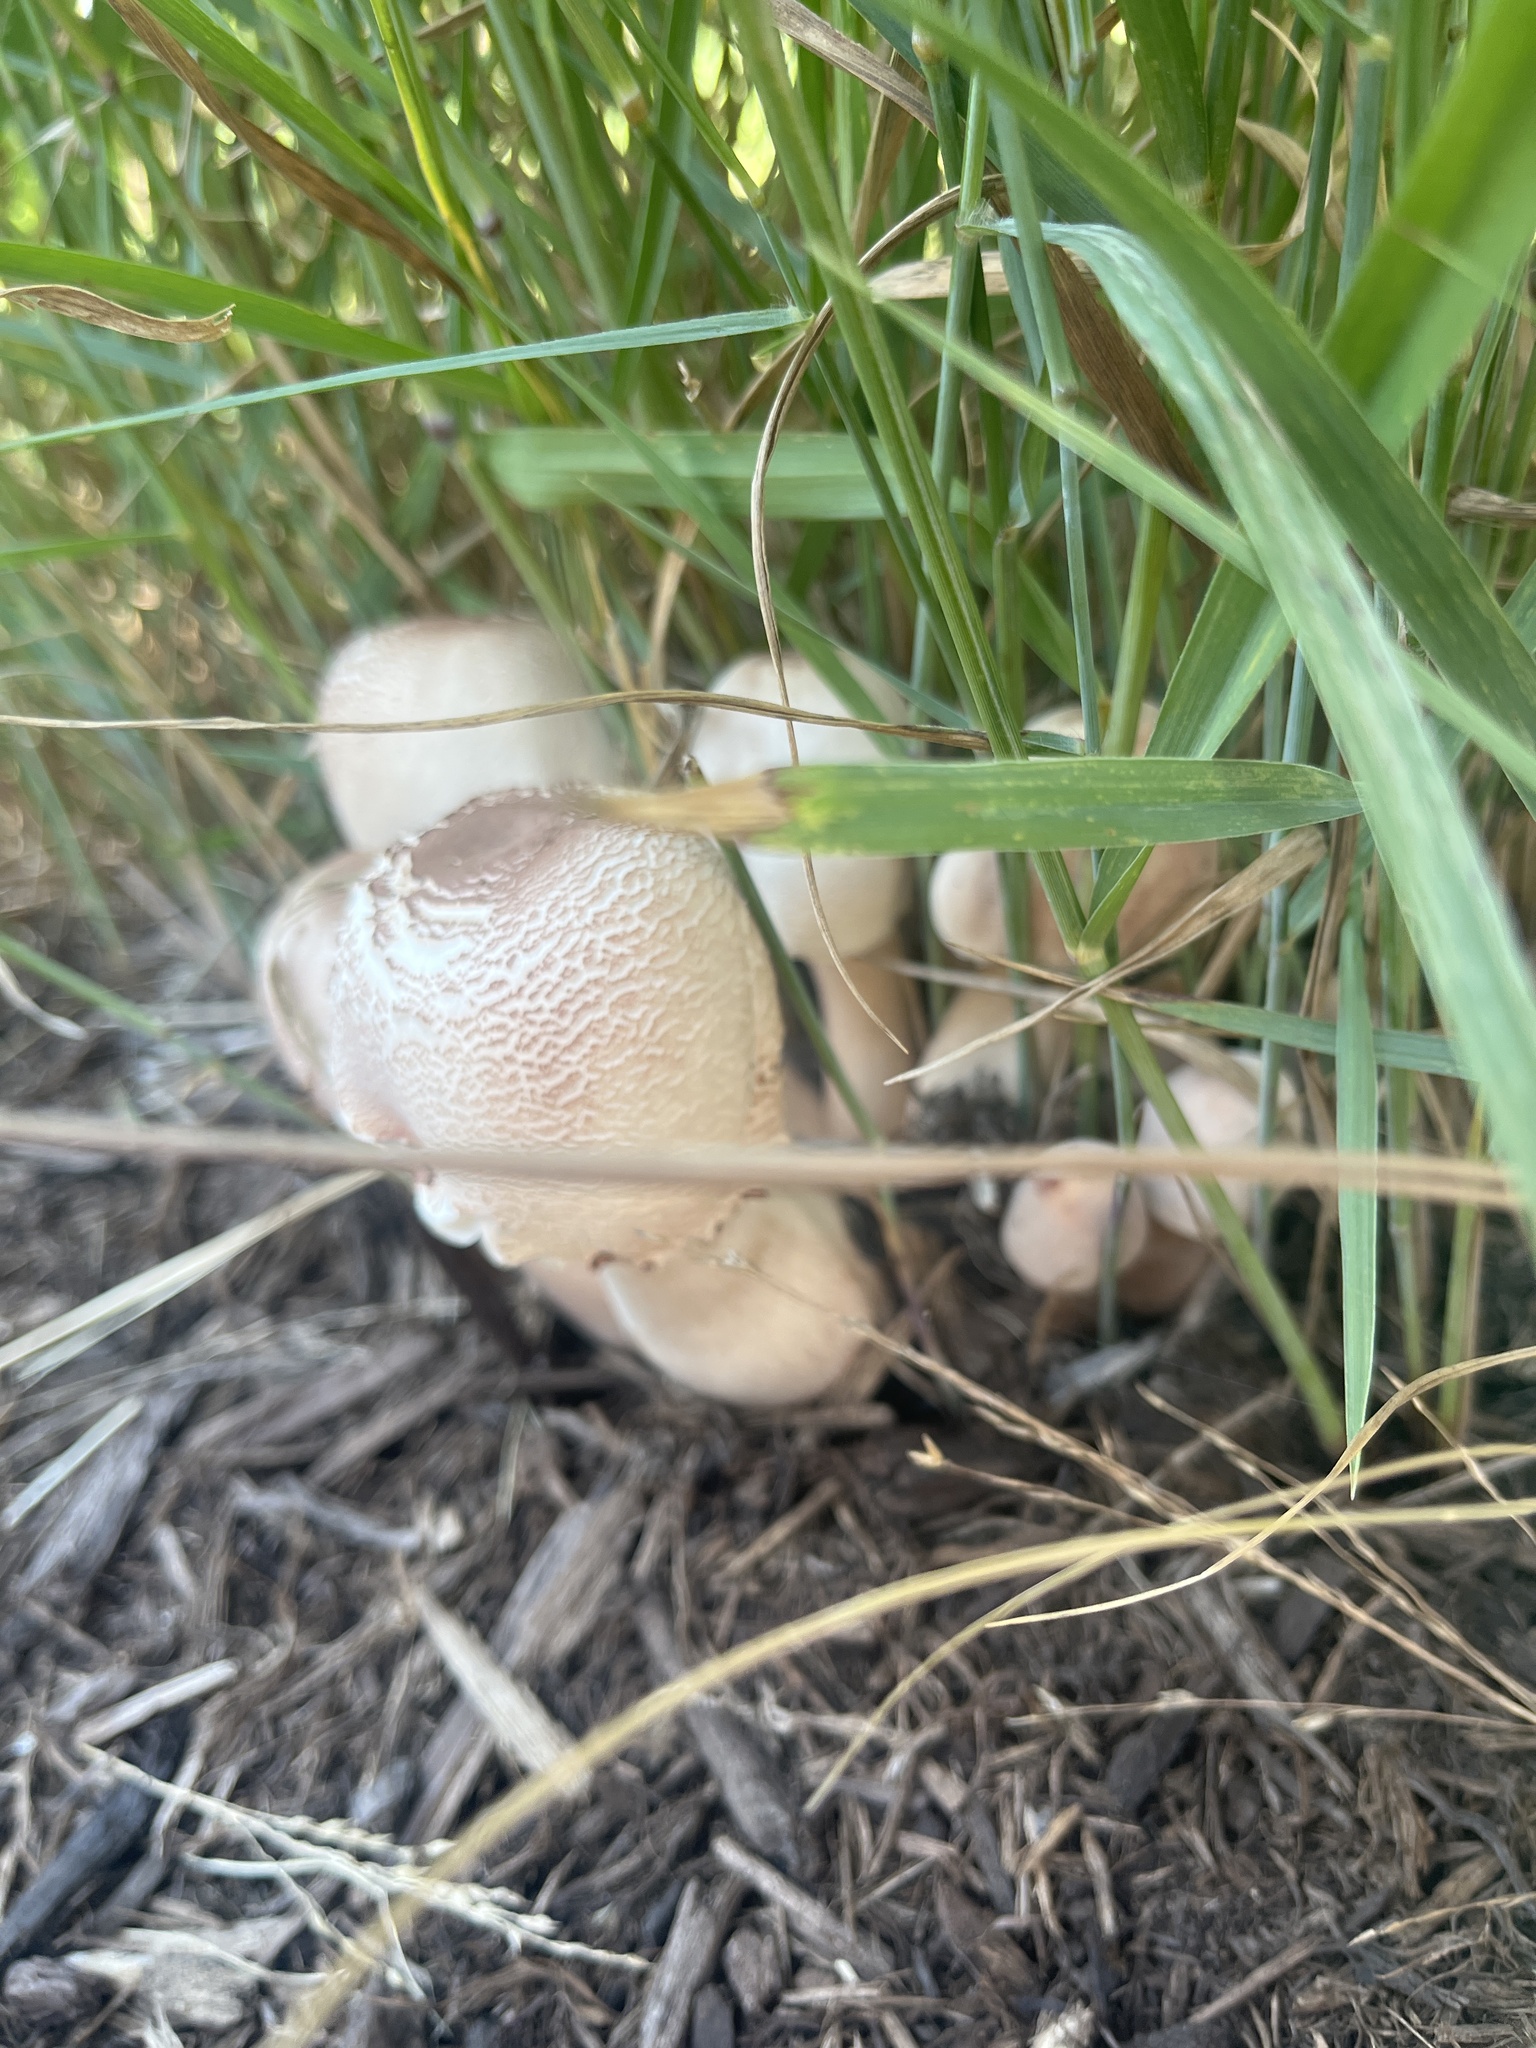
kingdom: Fungi
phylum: Basidiomycota
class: Agaricomycetes
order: Agaricales
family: Agaricaceae
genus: Leucoagaricus
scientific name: Leucoagaricus americanus
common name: Reddening lepiota
